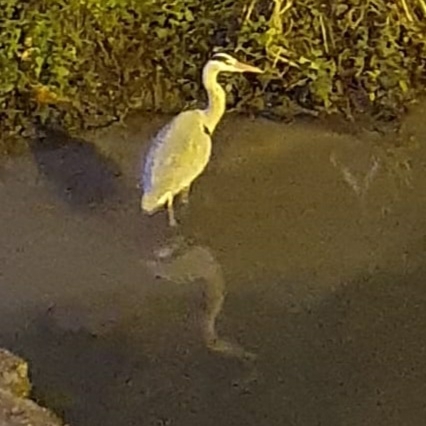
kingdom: Animalia
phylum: Chordata
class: Aves
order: Pelecaniformes
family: Ardeidae
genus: Ardea
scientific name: Ardea cinerea
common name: Grey heron
